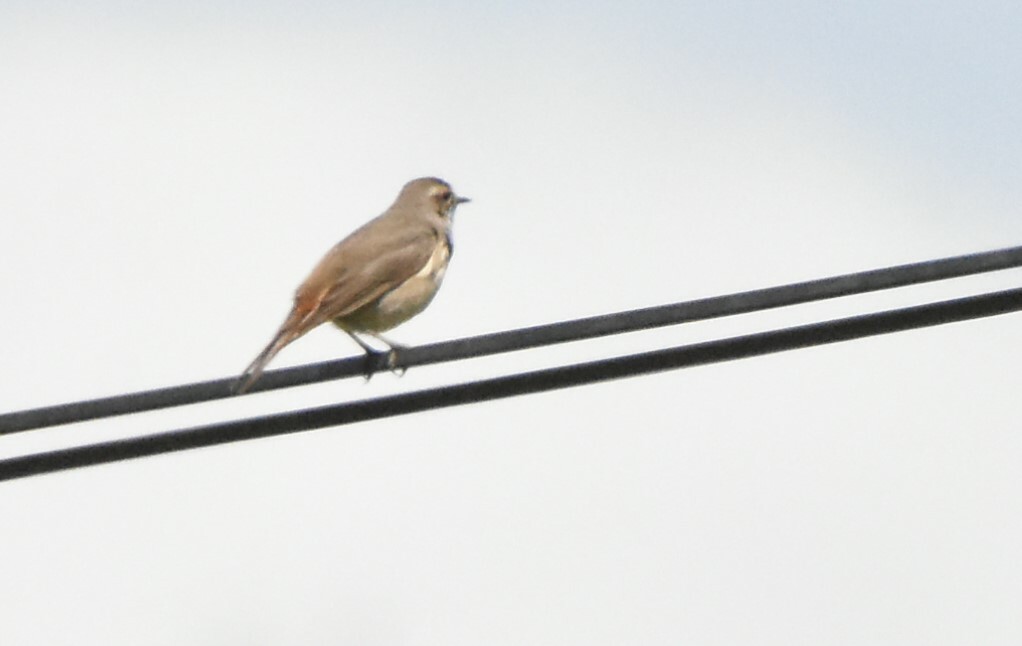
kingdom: Animalia
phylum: Chordata
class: Aves
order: Passeriformes
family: Muscicapidae
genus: Luscinia
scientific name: Luscinia svecica
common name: Bluethroat
